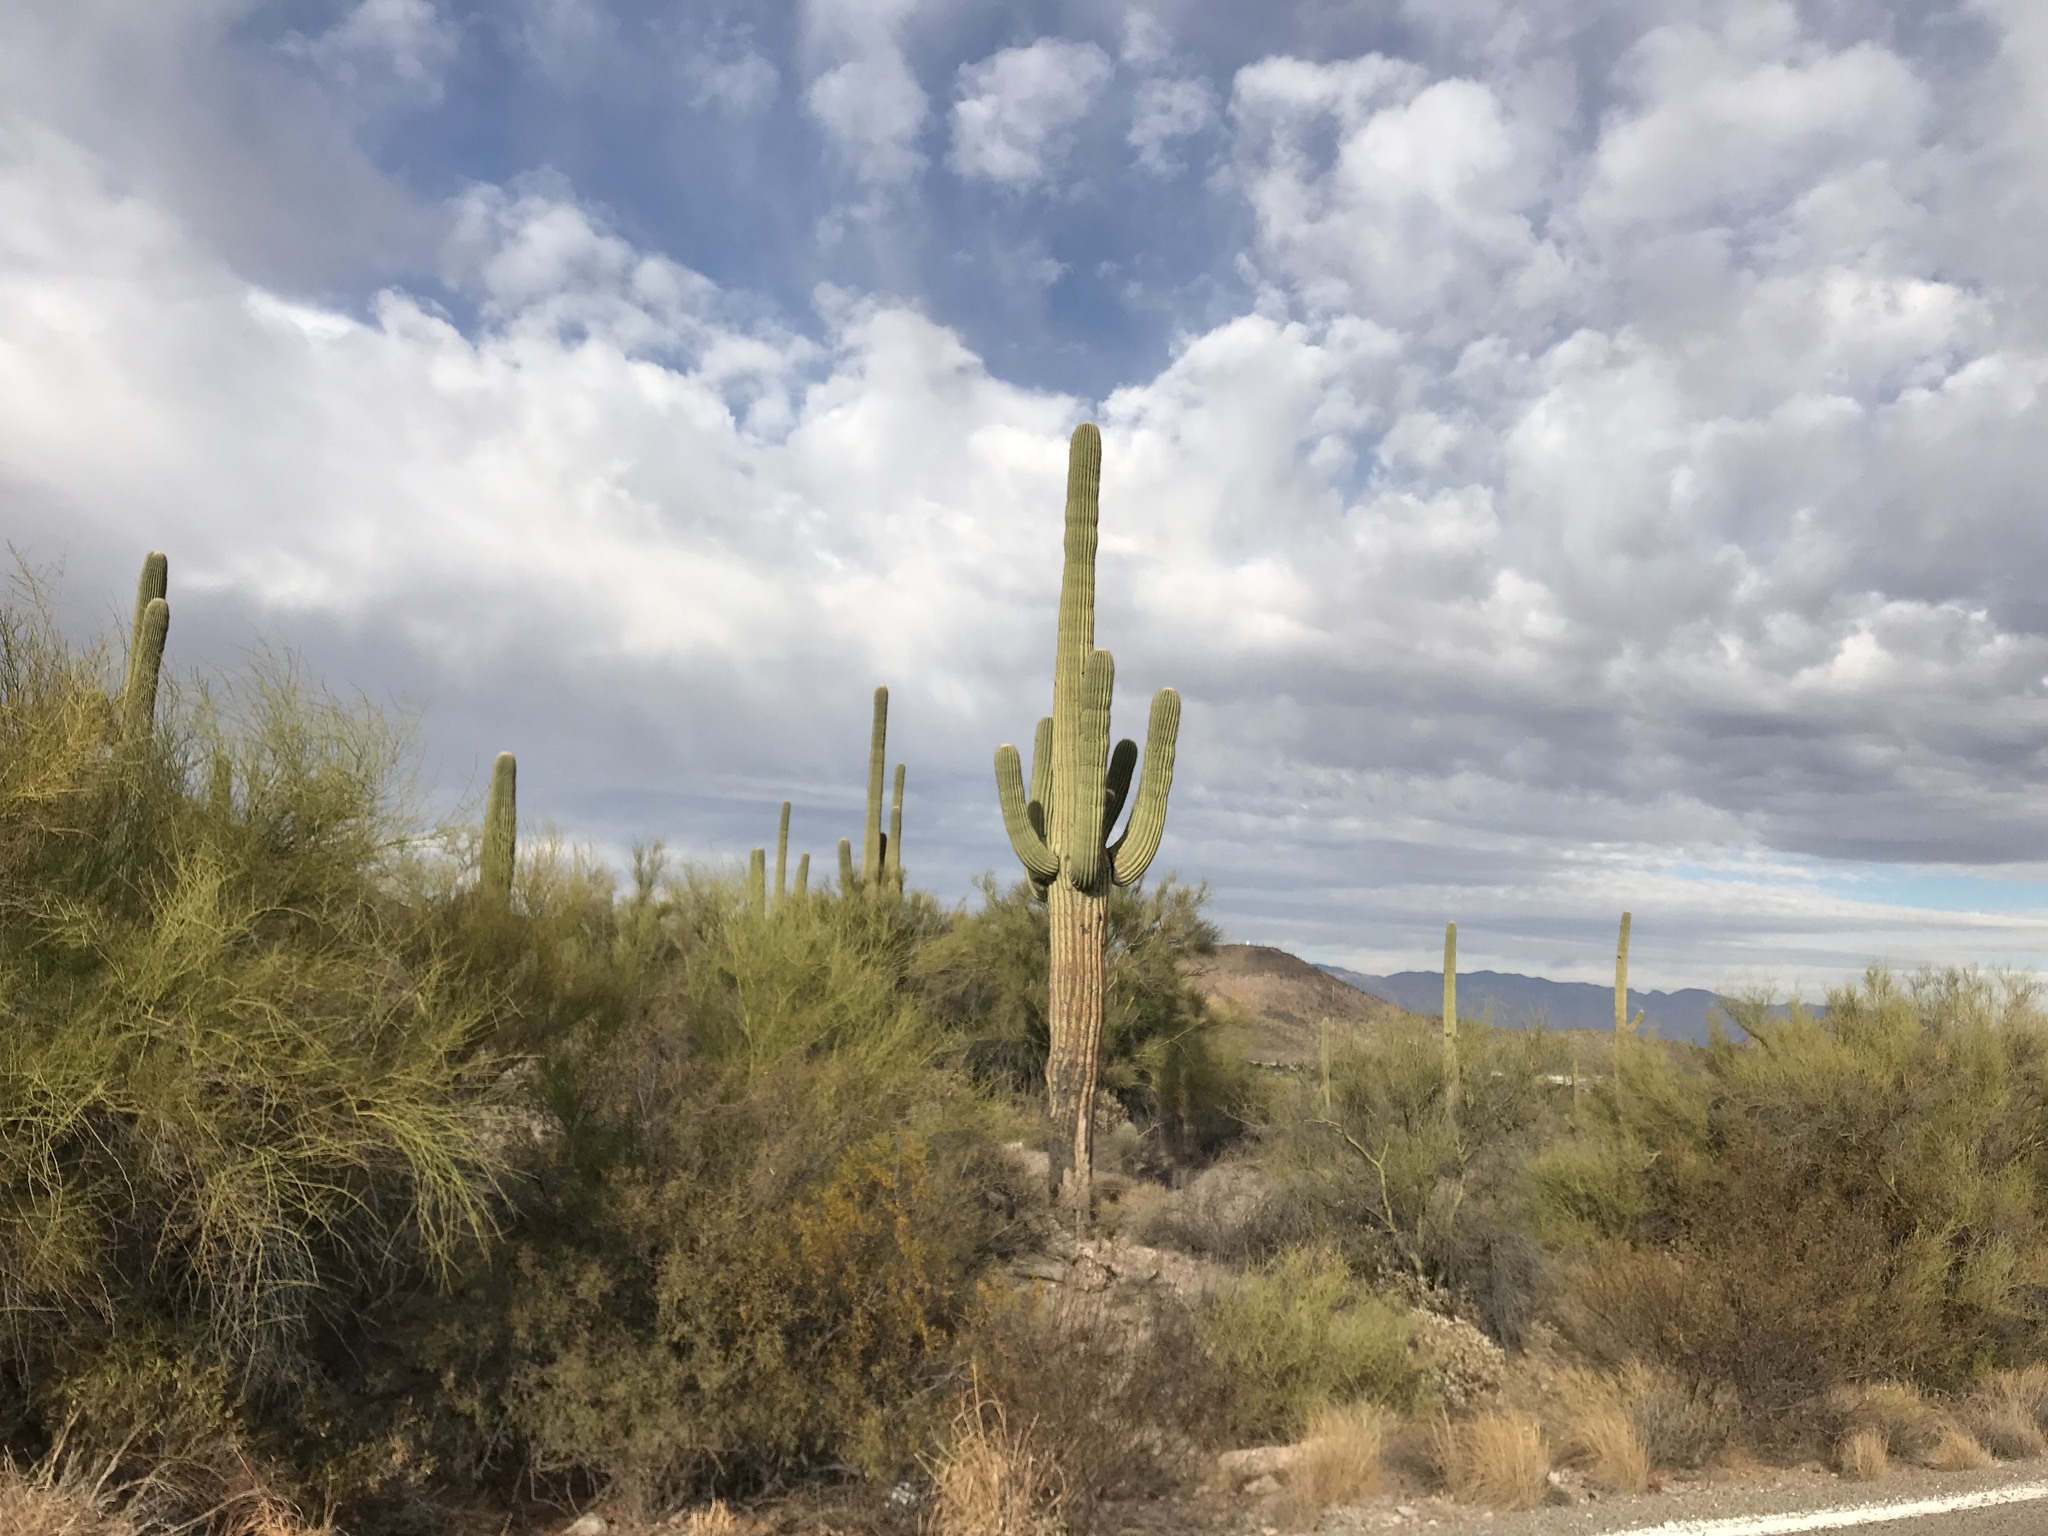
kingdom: Plantae
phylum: Tracheophyta
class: Magnoliopsida
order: Caryophyllales
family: Cactaceae
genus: Carnegiea
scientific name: Carnegiea gigantea
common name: Saguaro
